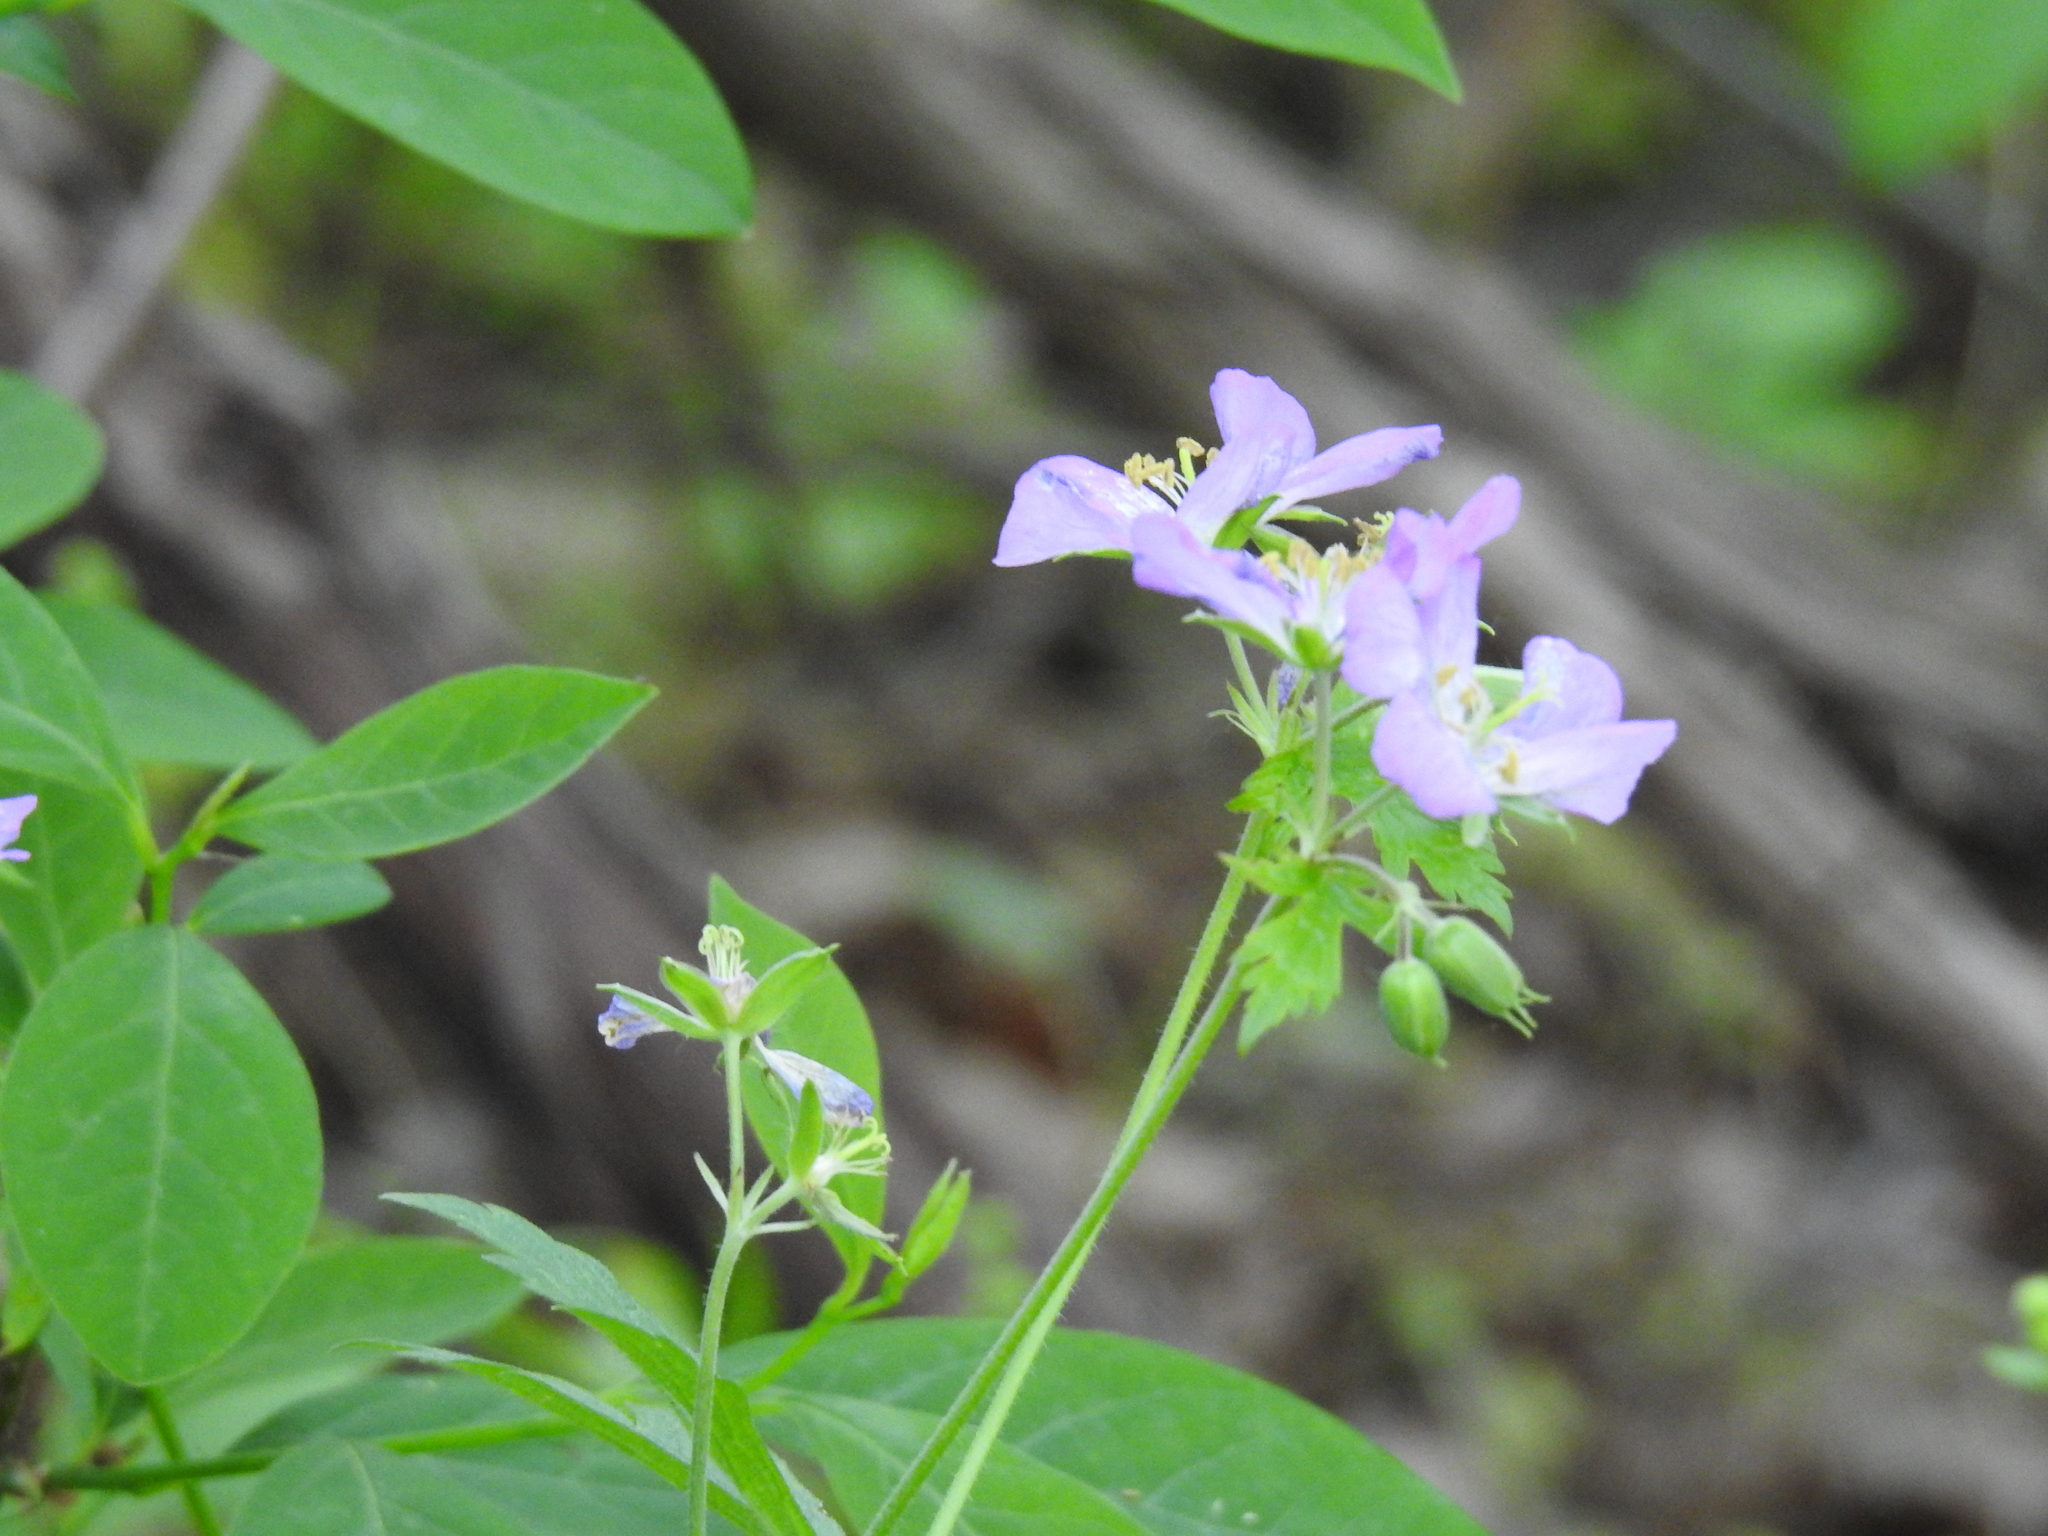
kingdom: Plantae
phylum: Tracheophyta
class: Magnoliopsida
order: Geraniales
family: Geraniaceae
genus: Geranium
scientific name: Geranium maculatum
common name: Spotted geranium
